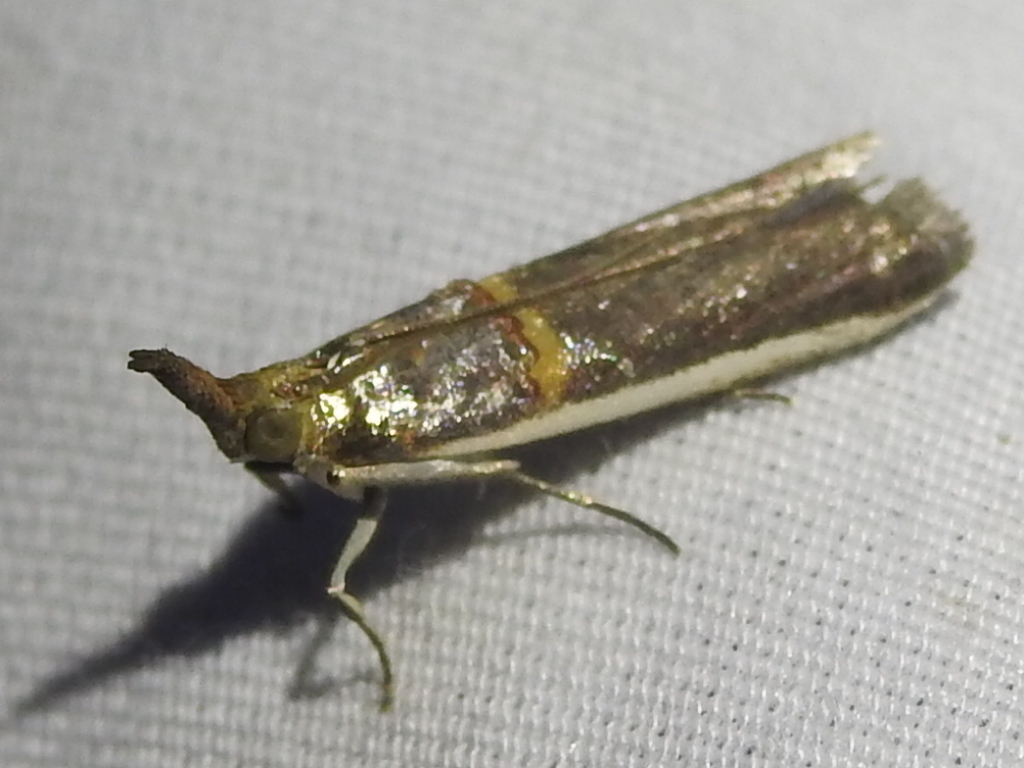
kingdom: Animalia
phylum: Arthropoda
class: Insecta
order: Lepidoptera
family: Pyralidae
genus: Etiella
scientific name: Etiella zinckenella
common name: Gold-banded etiella moth
